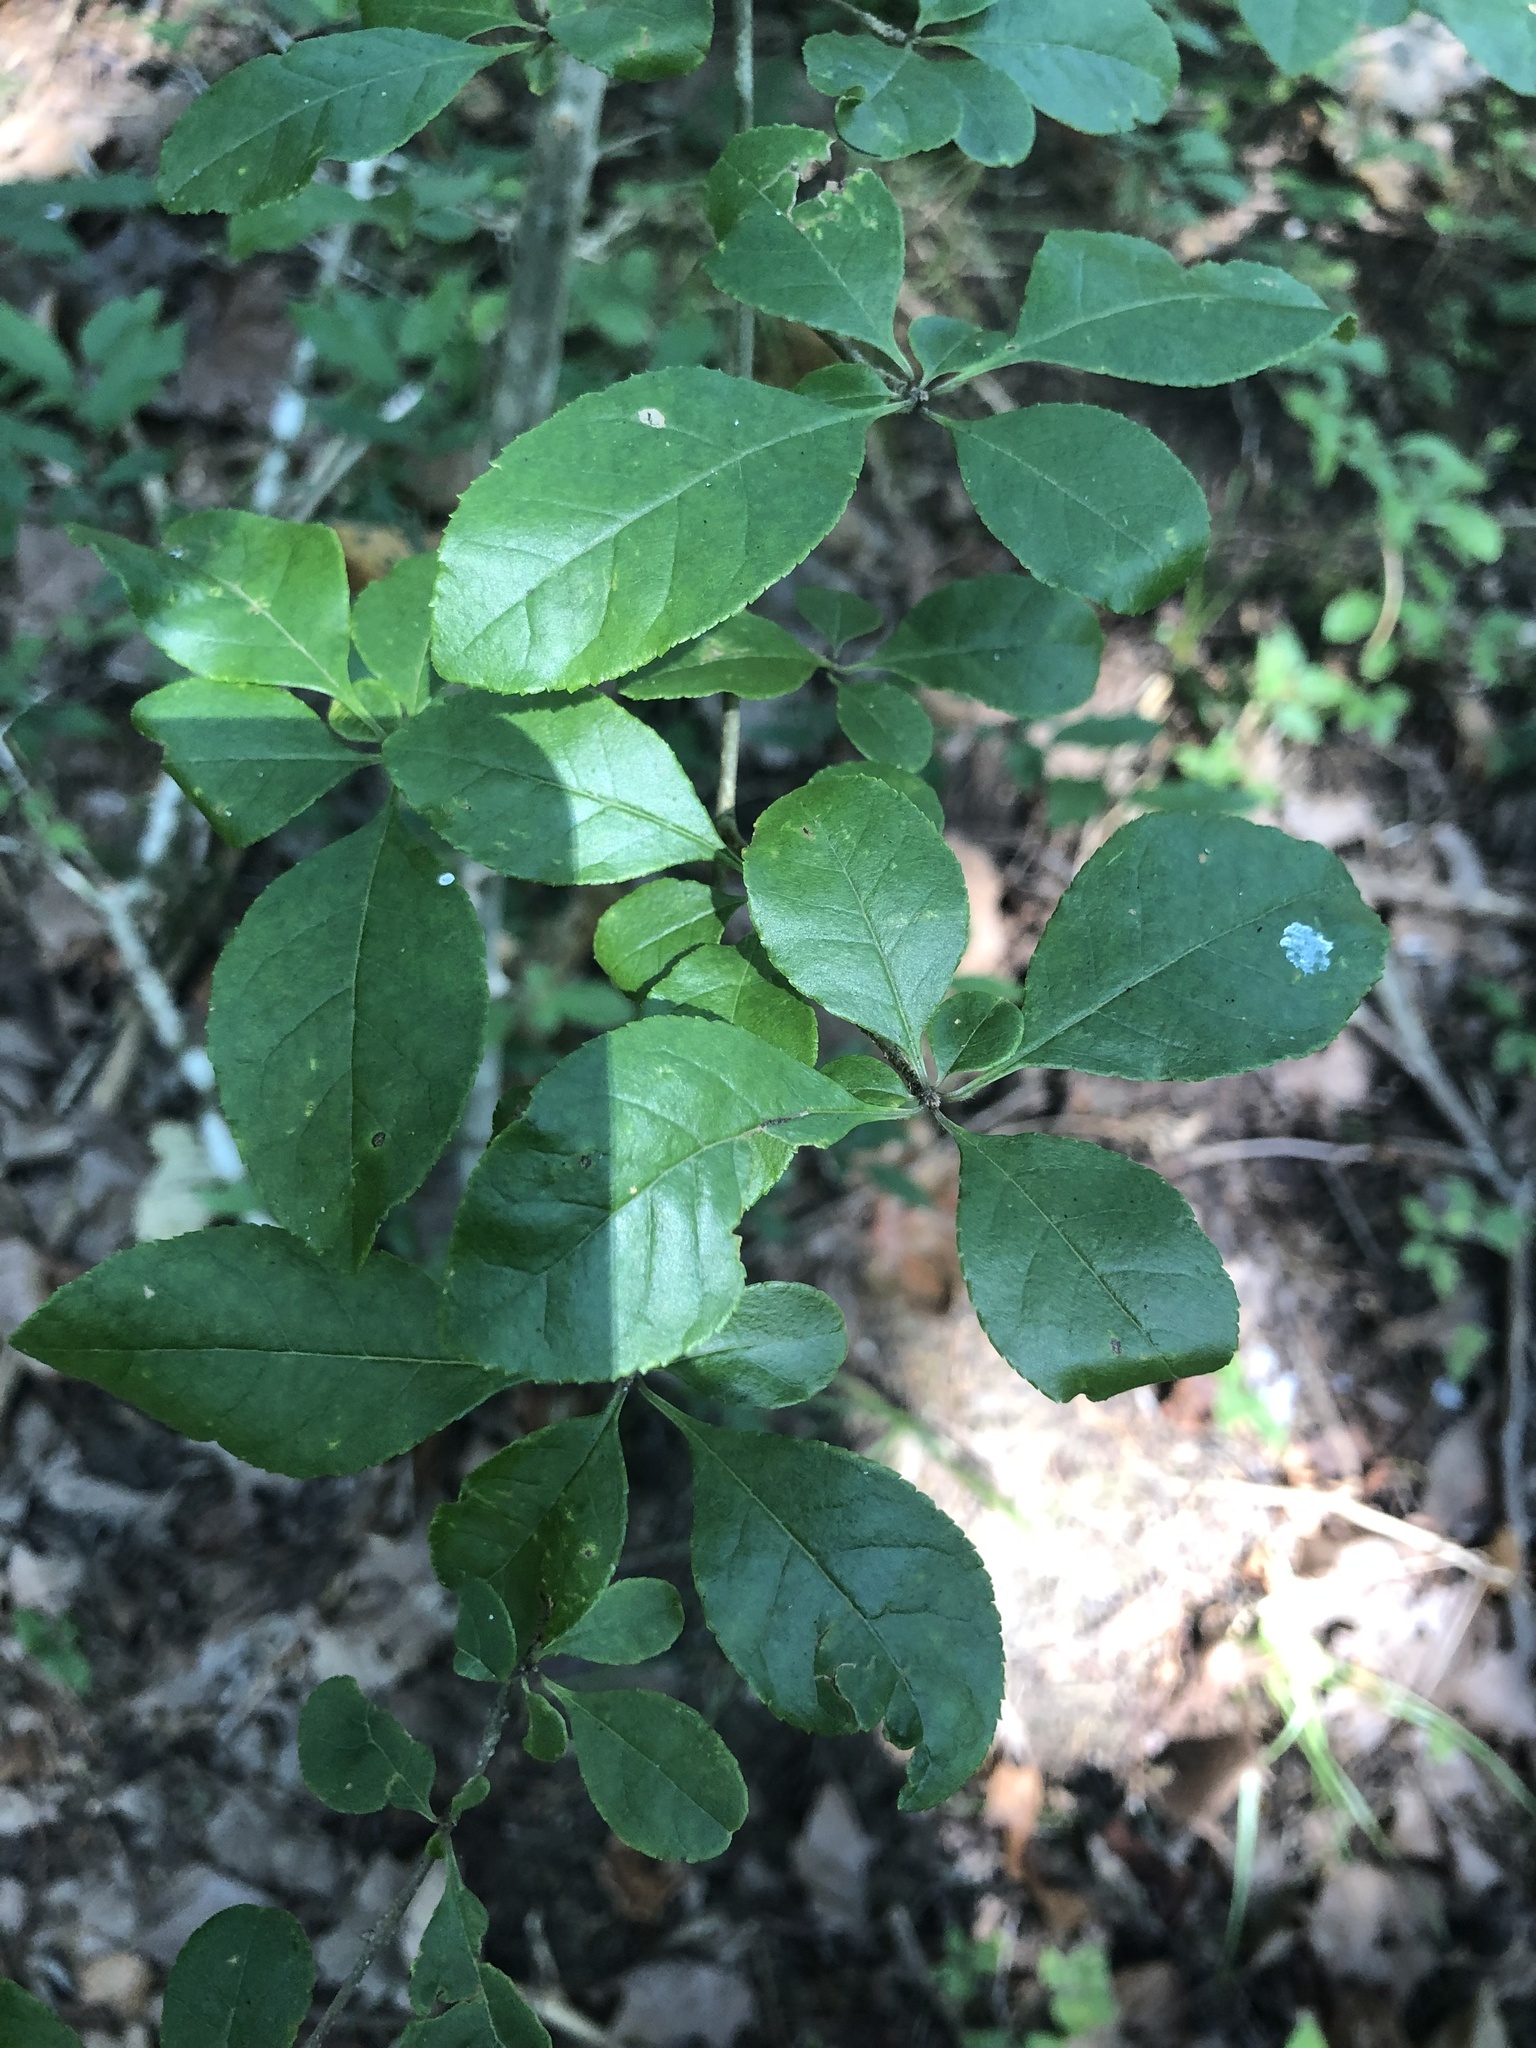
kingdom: Plantae
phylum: Tracheophyta
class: Magnoliopsida
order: Lamiales
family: Oleaceae
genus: Forestiera
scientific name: Forestiera ligustrina
